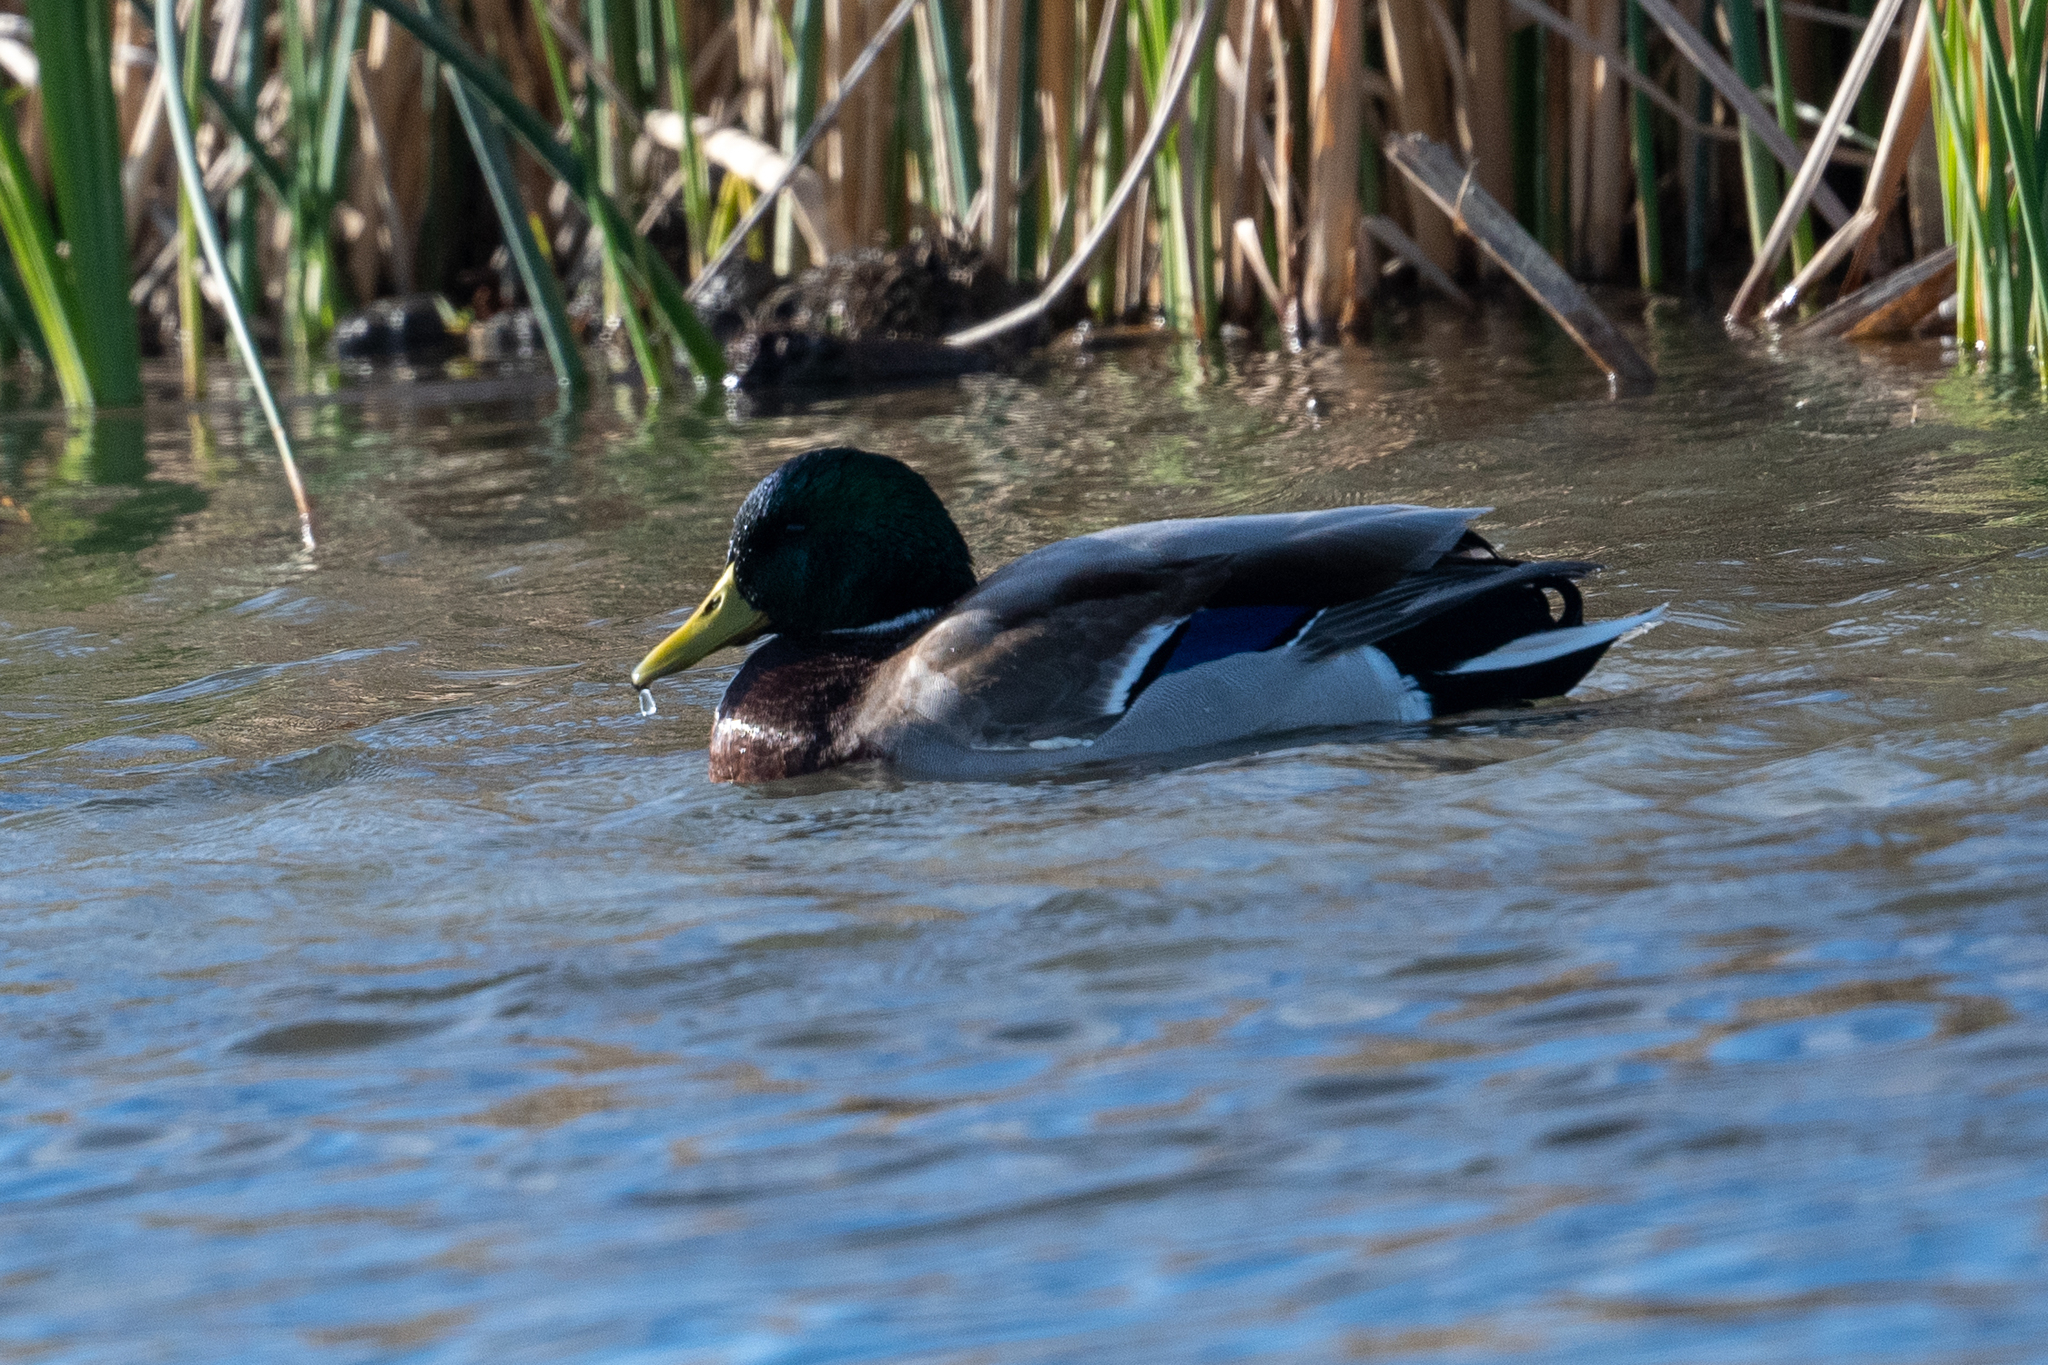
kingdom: Animalia
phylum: Chordata
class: Aves
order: Anseriformes
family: Anatidae
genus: Anas
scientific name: Anas platyrhynchos
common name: Mallard
